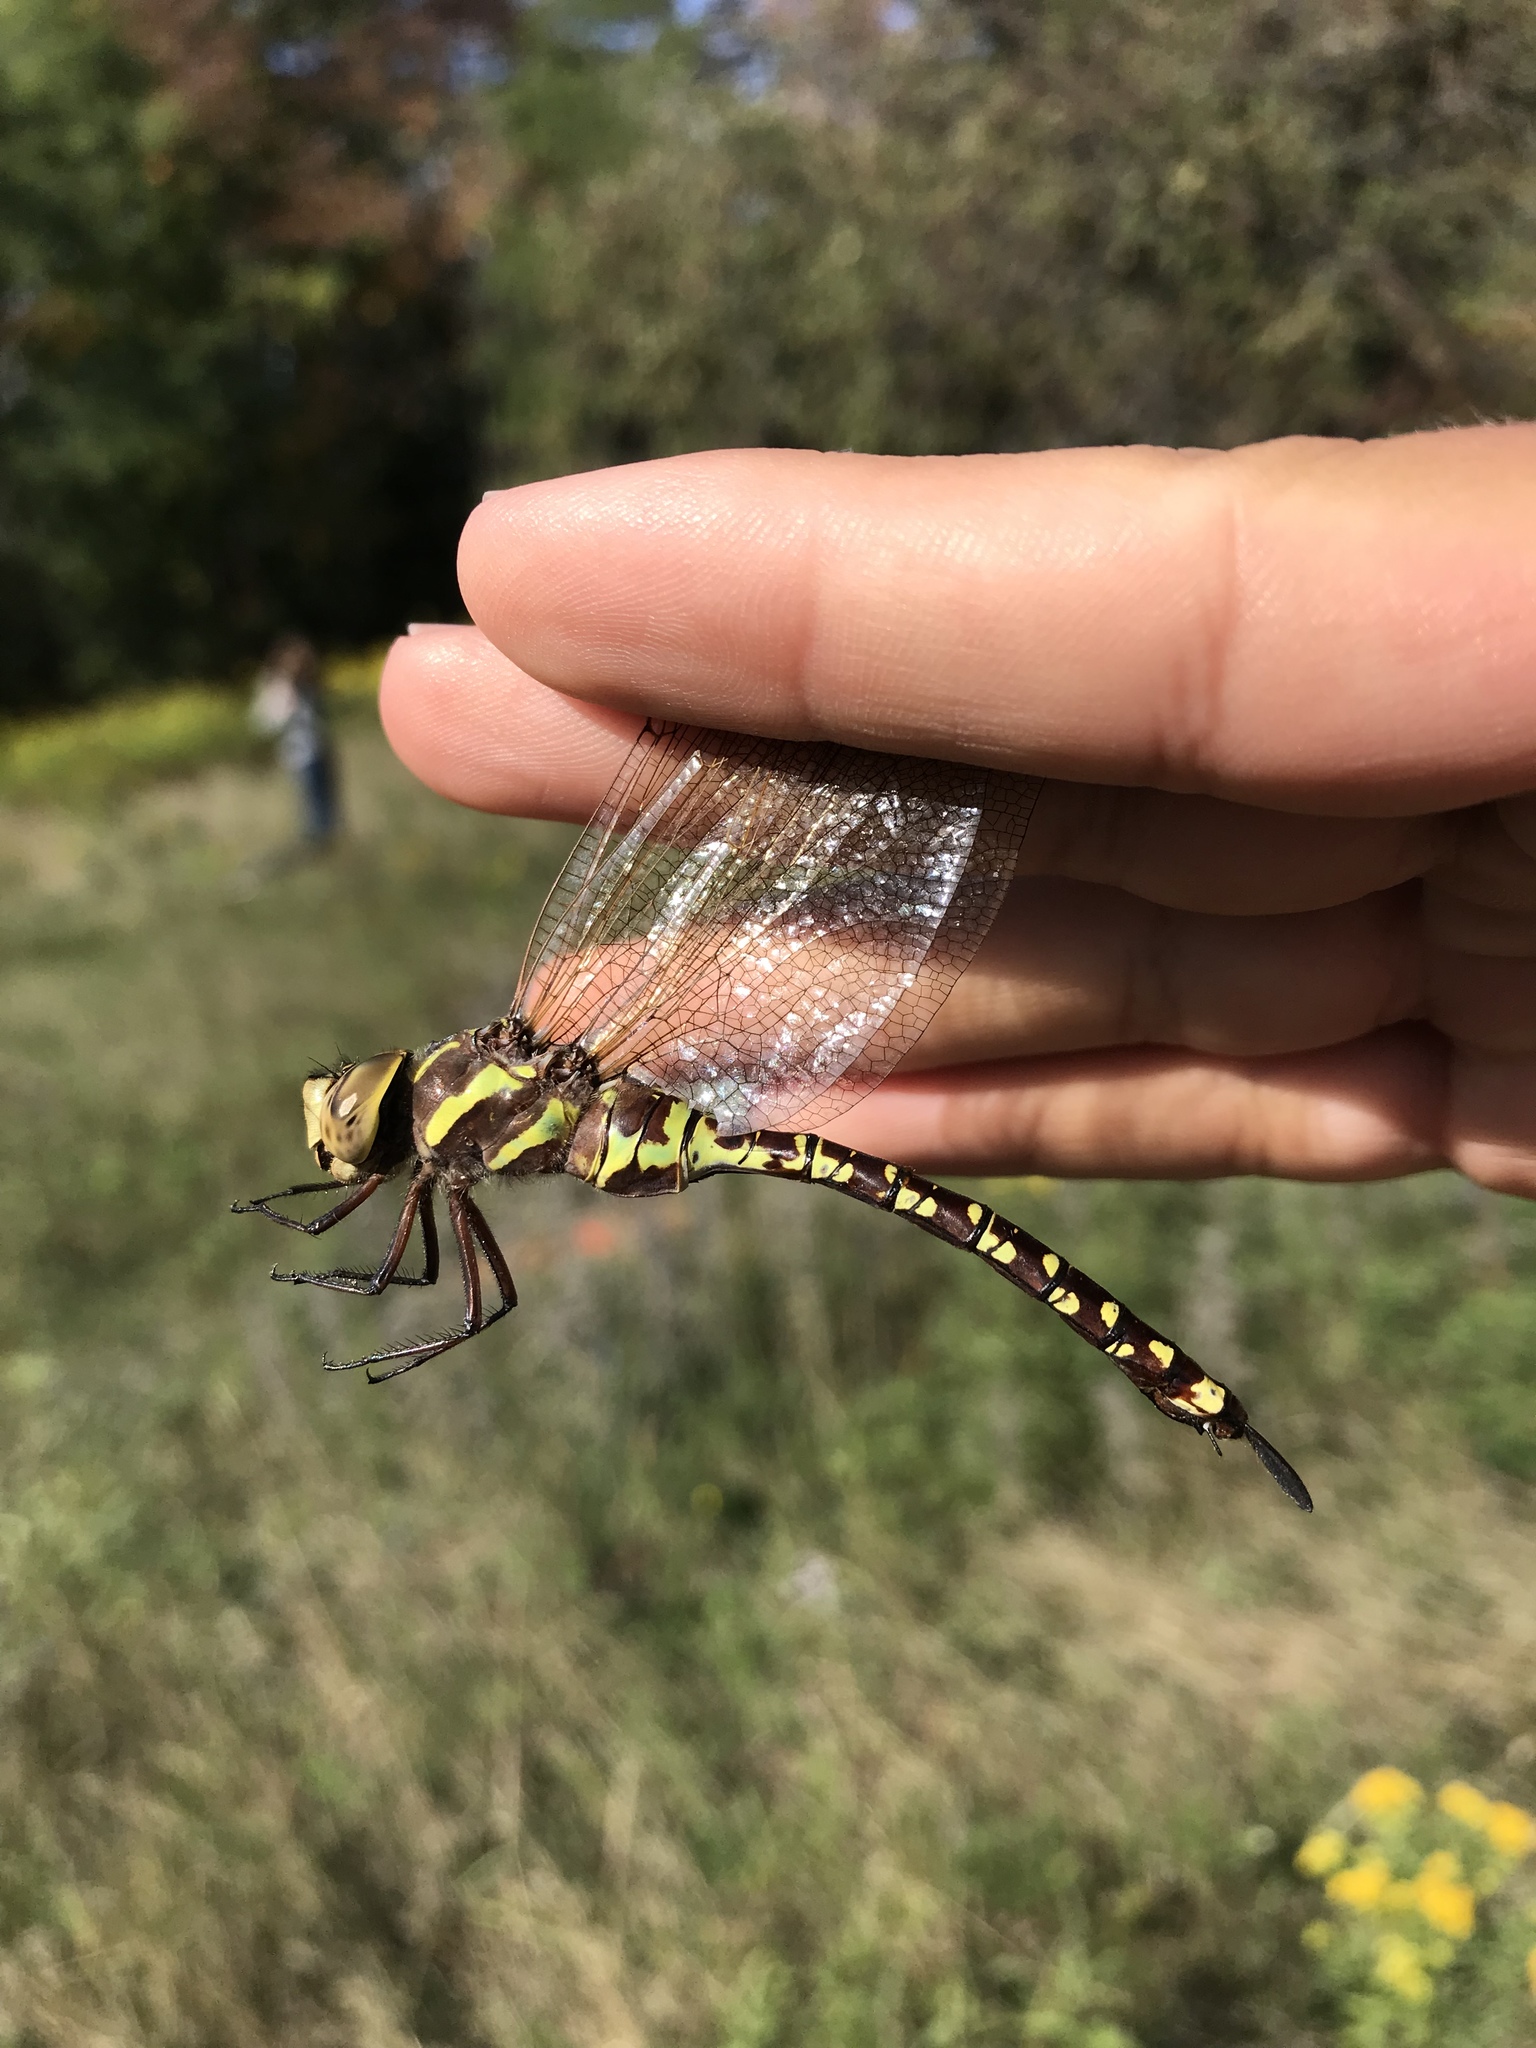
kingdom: Animalia
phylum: Arthropoda
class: Insecta
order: Odonata
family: Aeshnidae
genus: Aeshna
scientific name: Aeshna constricta
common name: Lance-tipped darner
